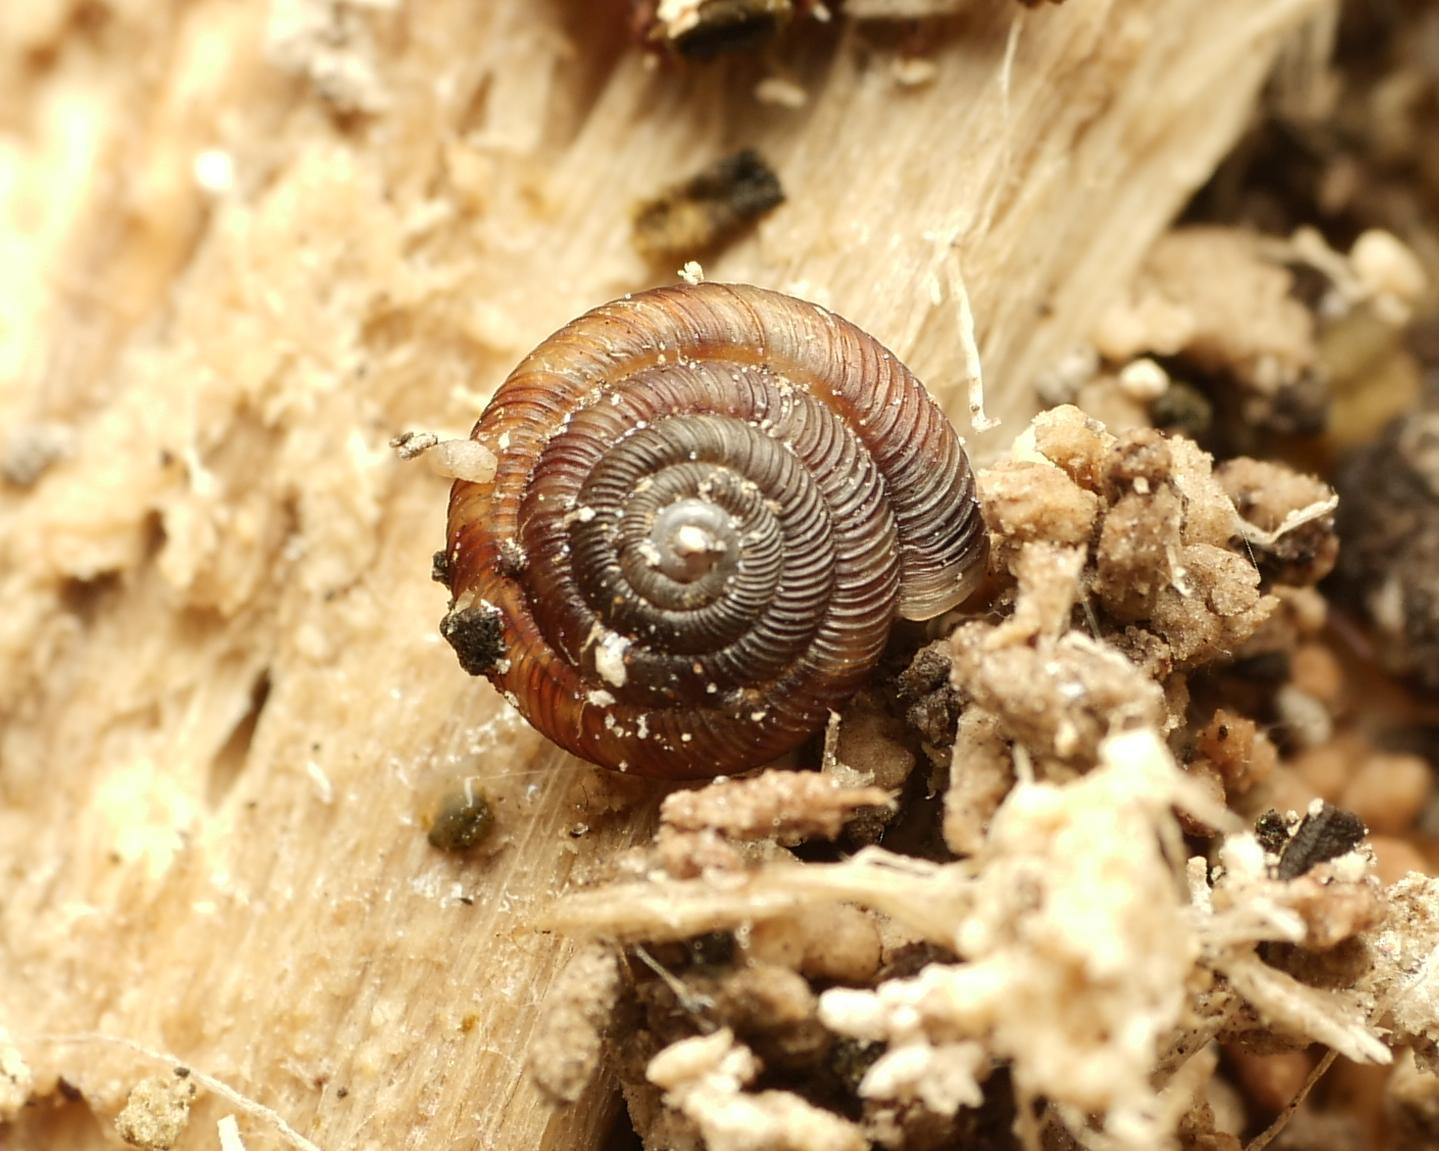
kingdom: Animalia
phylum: Mollusca
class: Gastropoda
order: Stylommatophora
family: Discidae
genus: Discus
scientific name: Discus rotundatus
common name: Rounded snail
